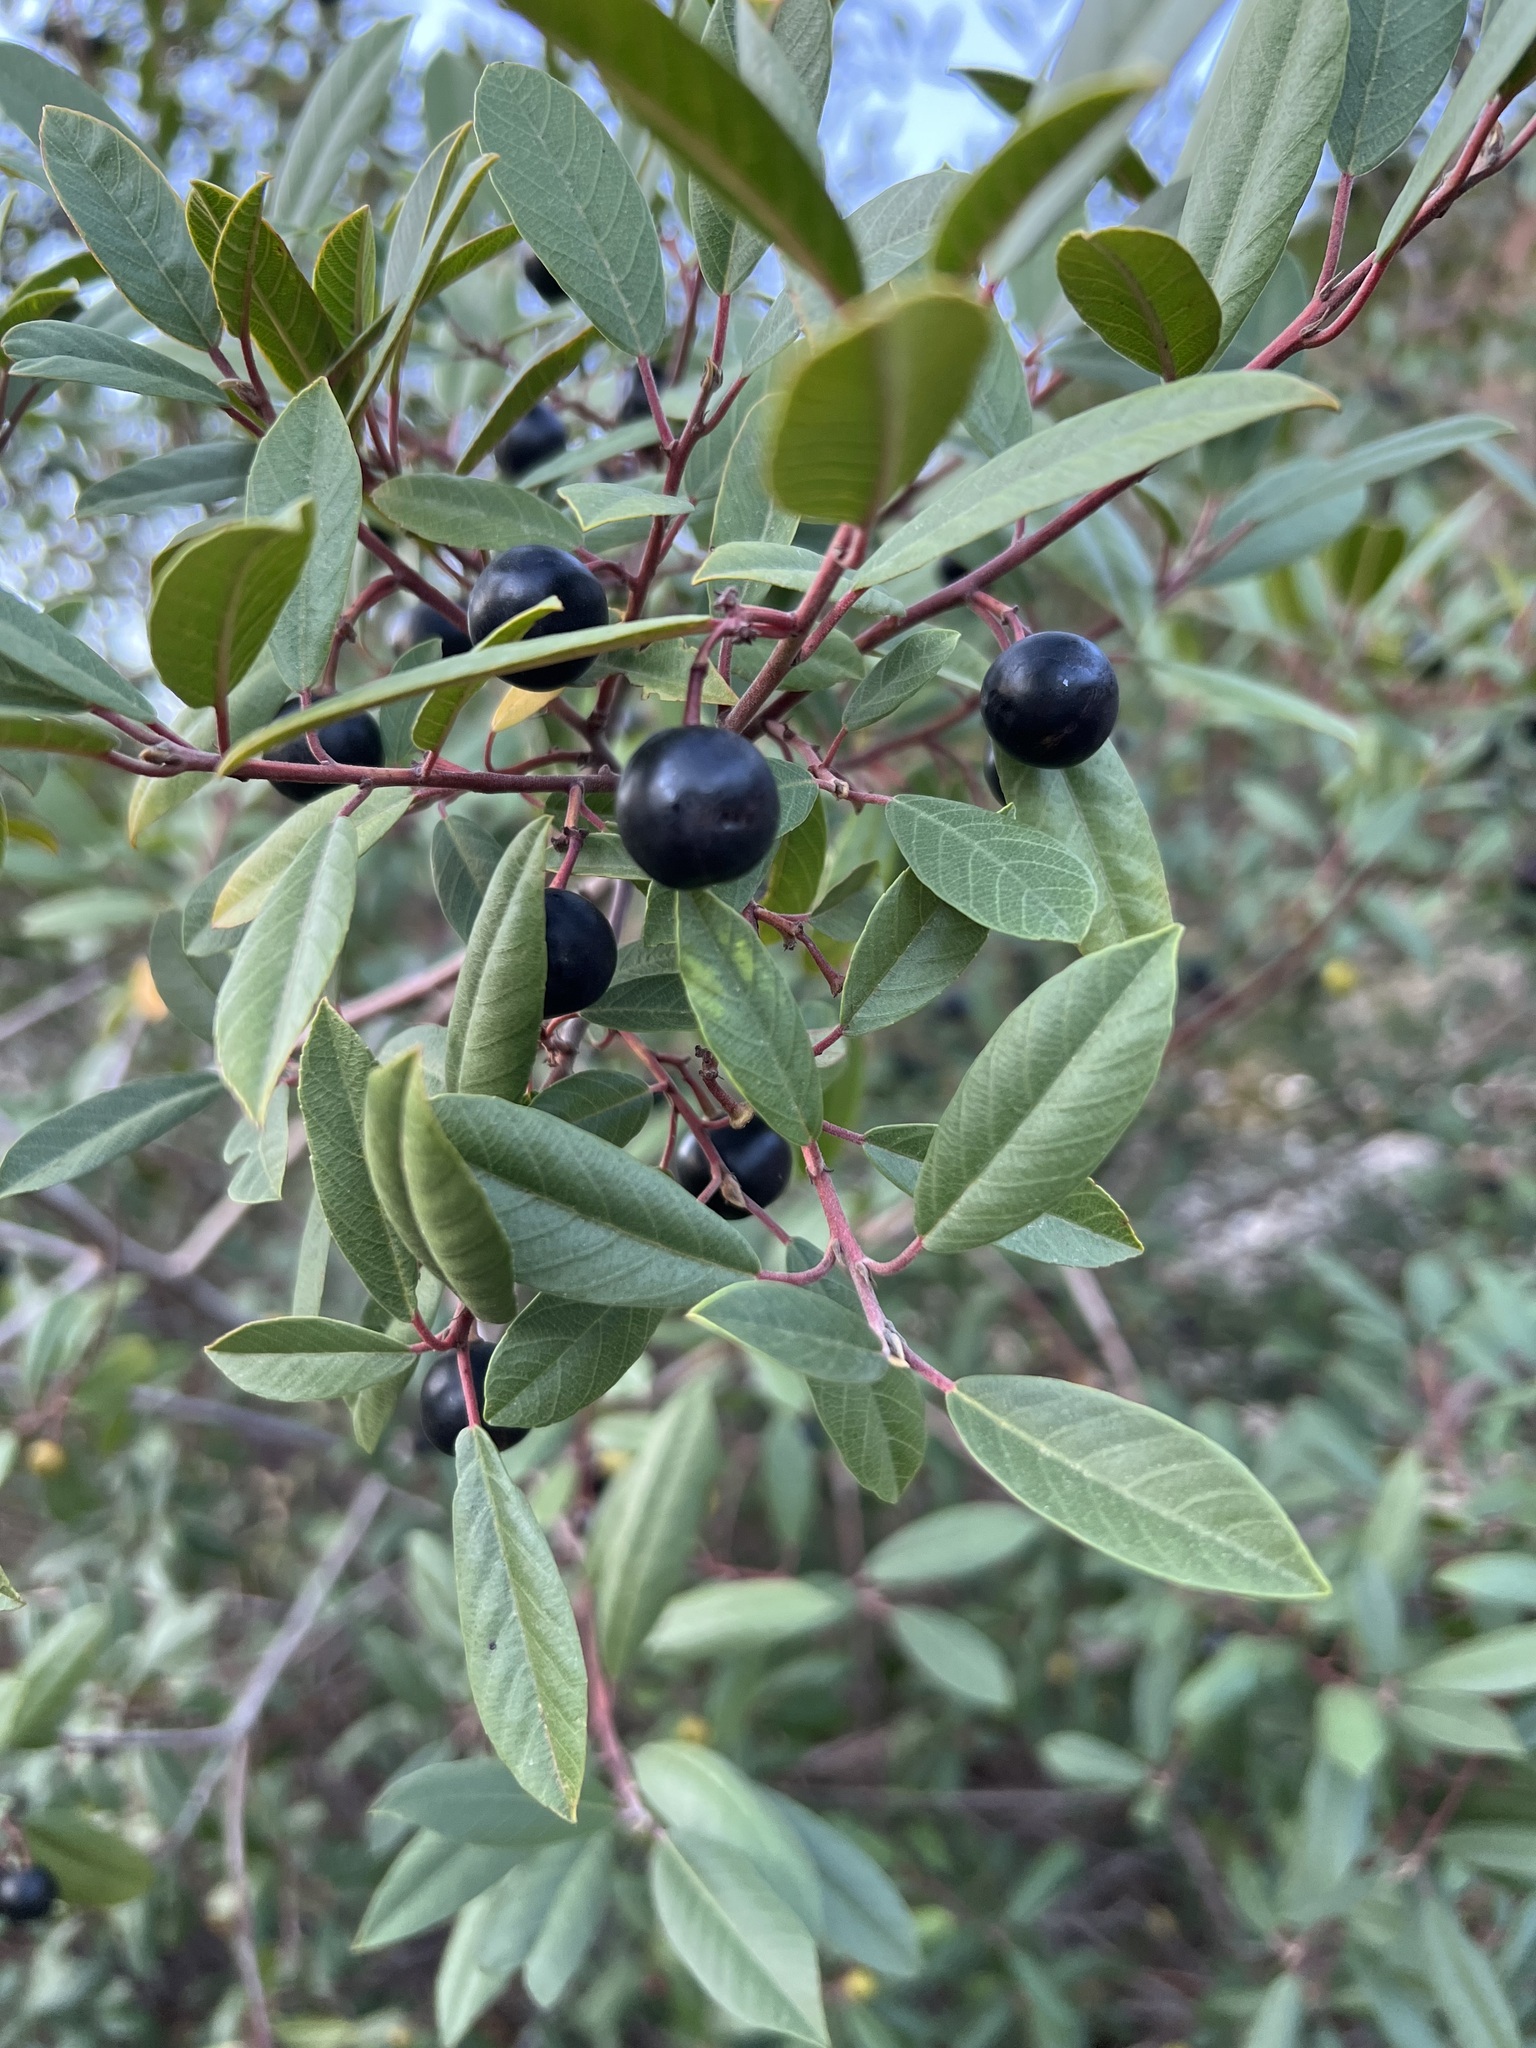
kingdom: Plantae
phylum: Tracheophyta
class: Magnoliopsida
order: Rosales
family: Rhamnaceae
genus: Frangula
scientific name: Frangula californica
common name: California buckthorn
